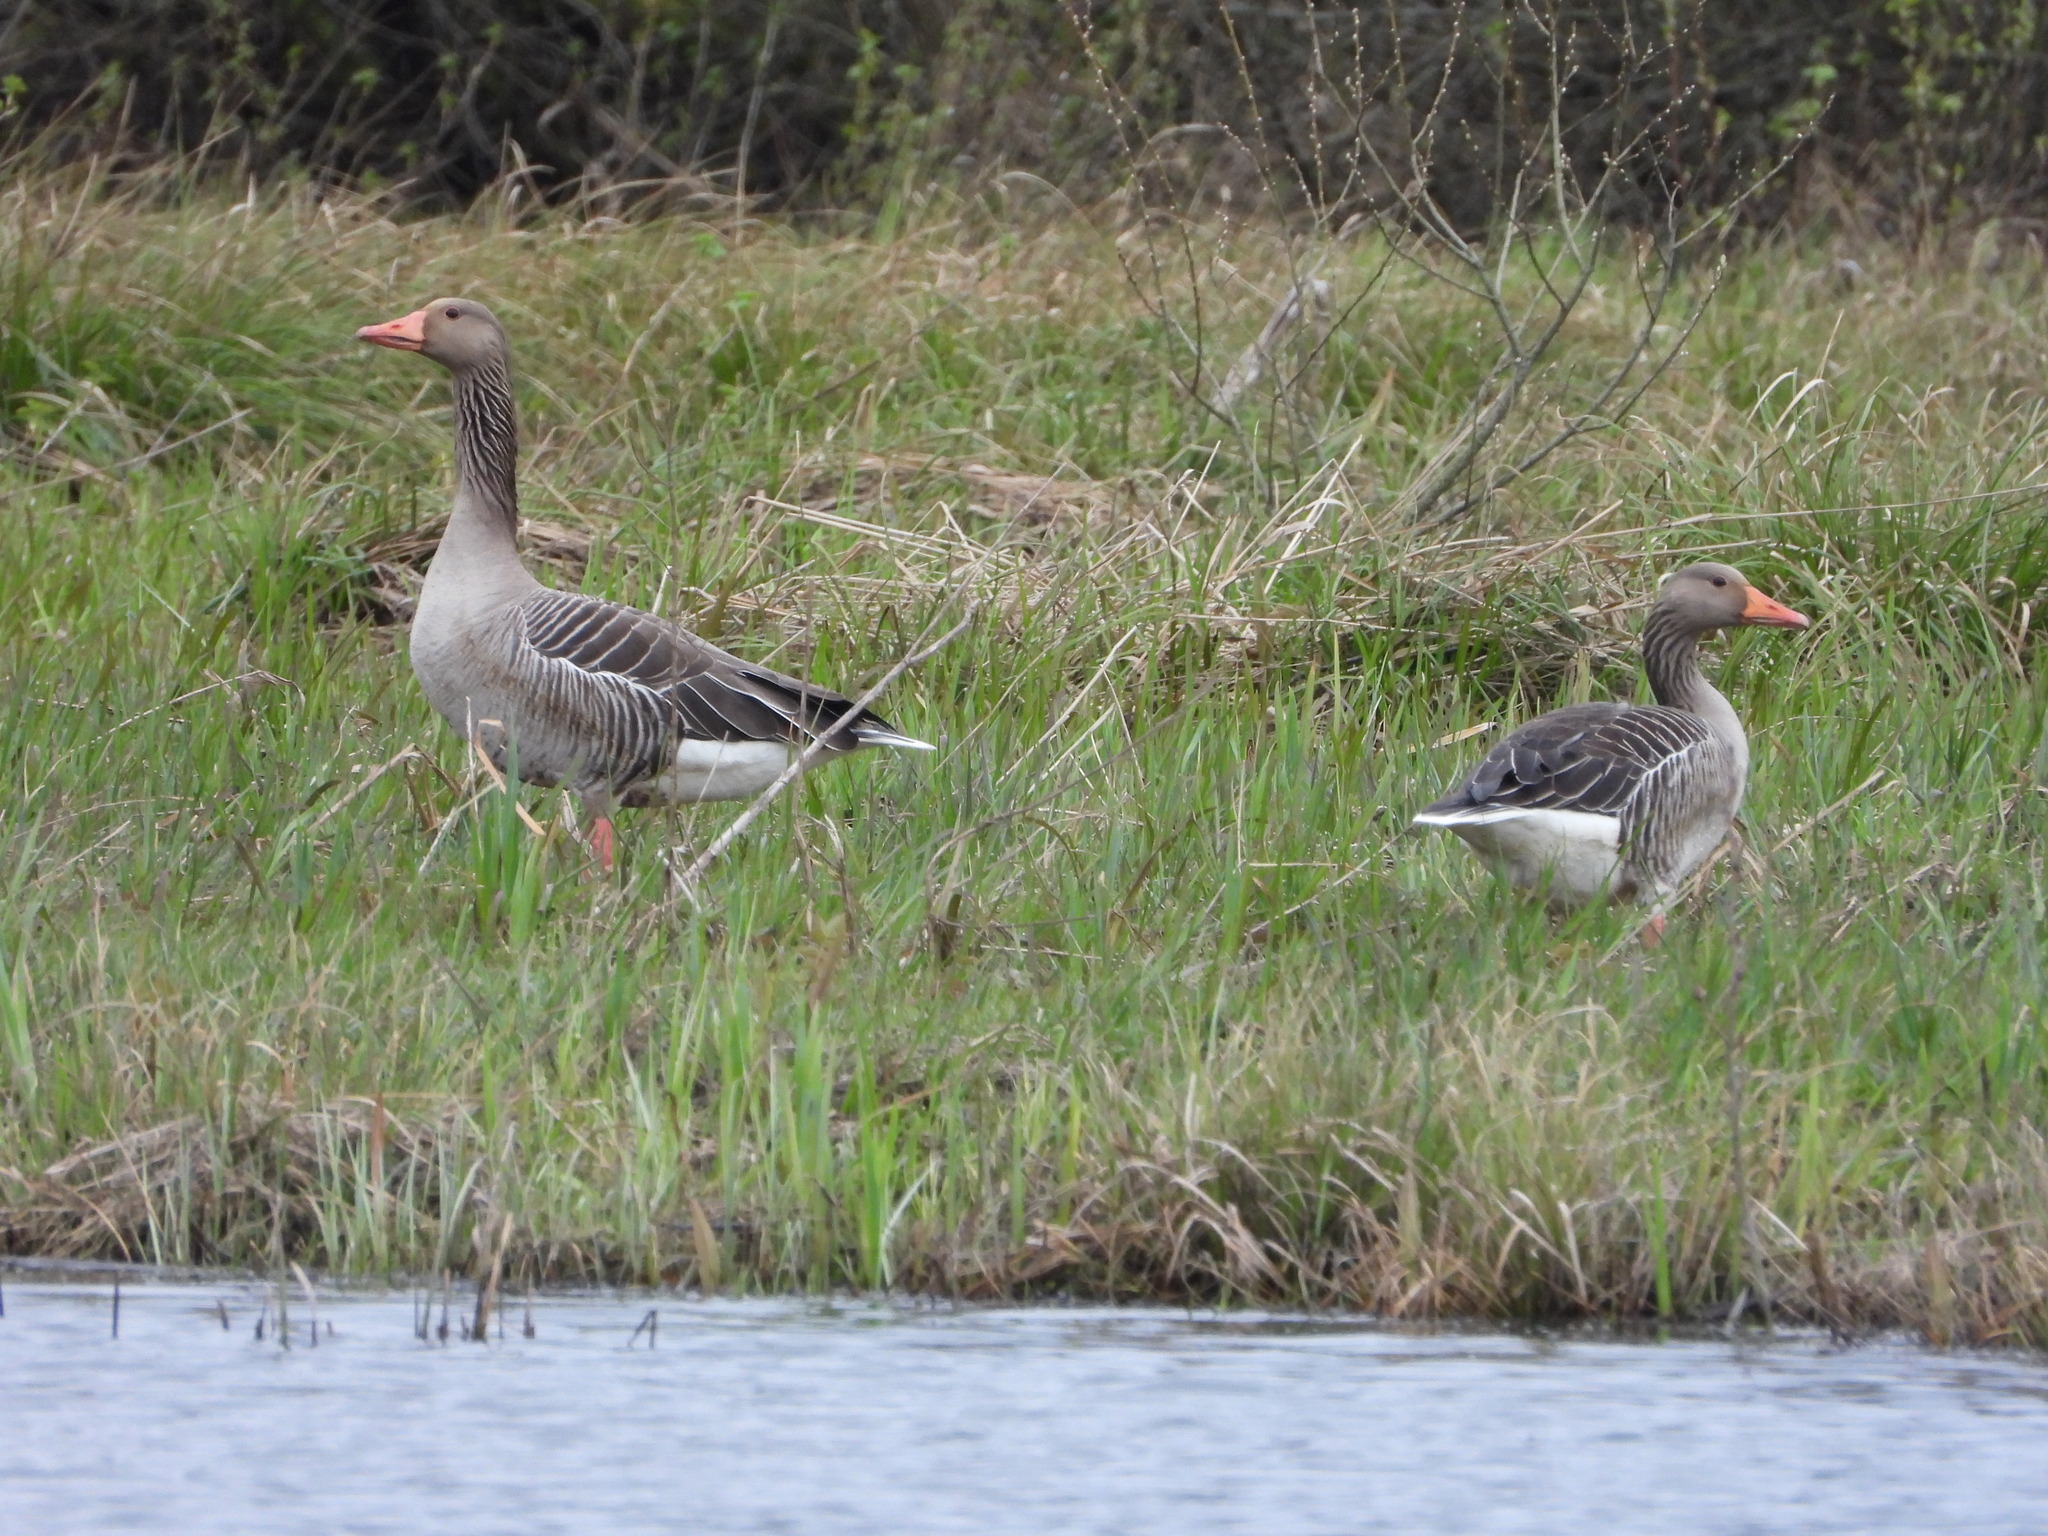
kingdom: Animalia
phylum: Chordata
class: Aves
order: Anseriformes
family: Anatidae
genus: Anser
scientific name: Anser anser
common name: Greylag goose
